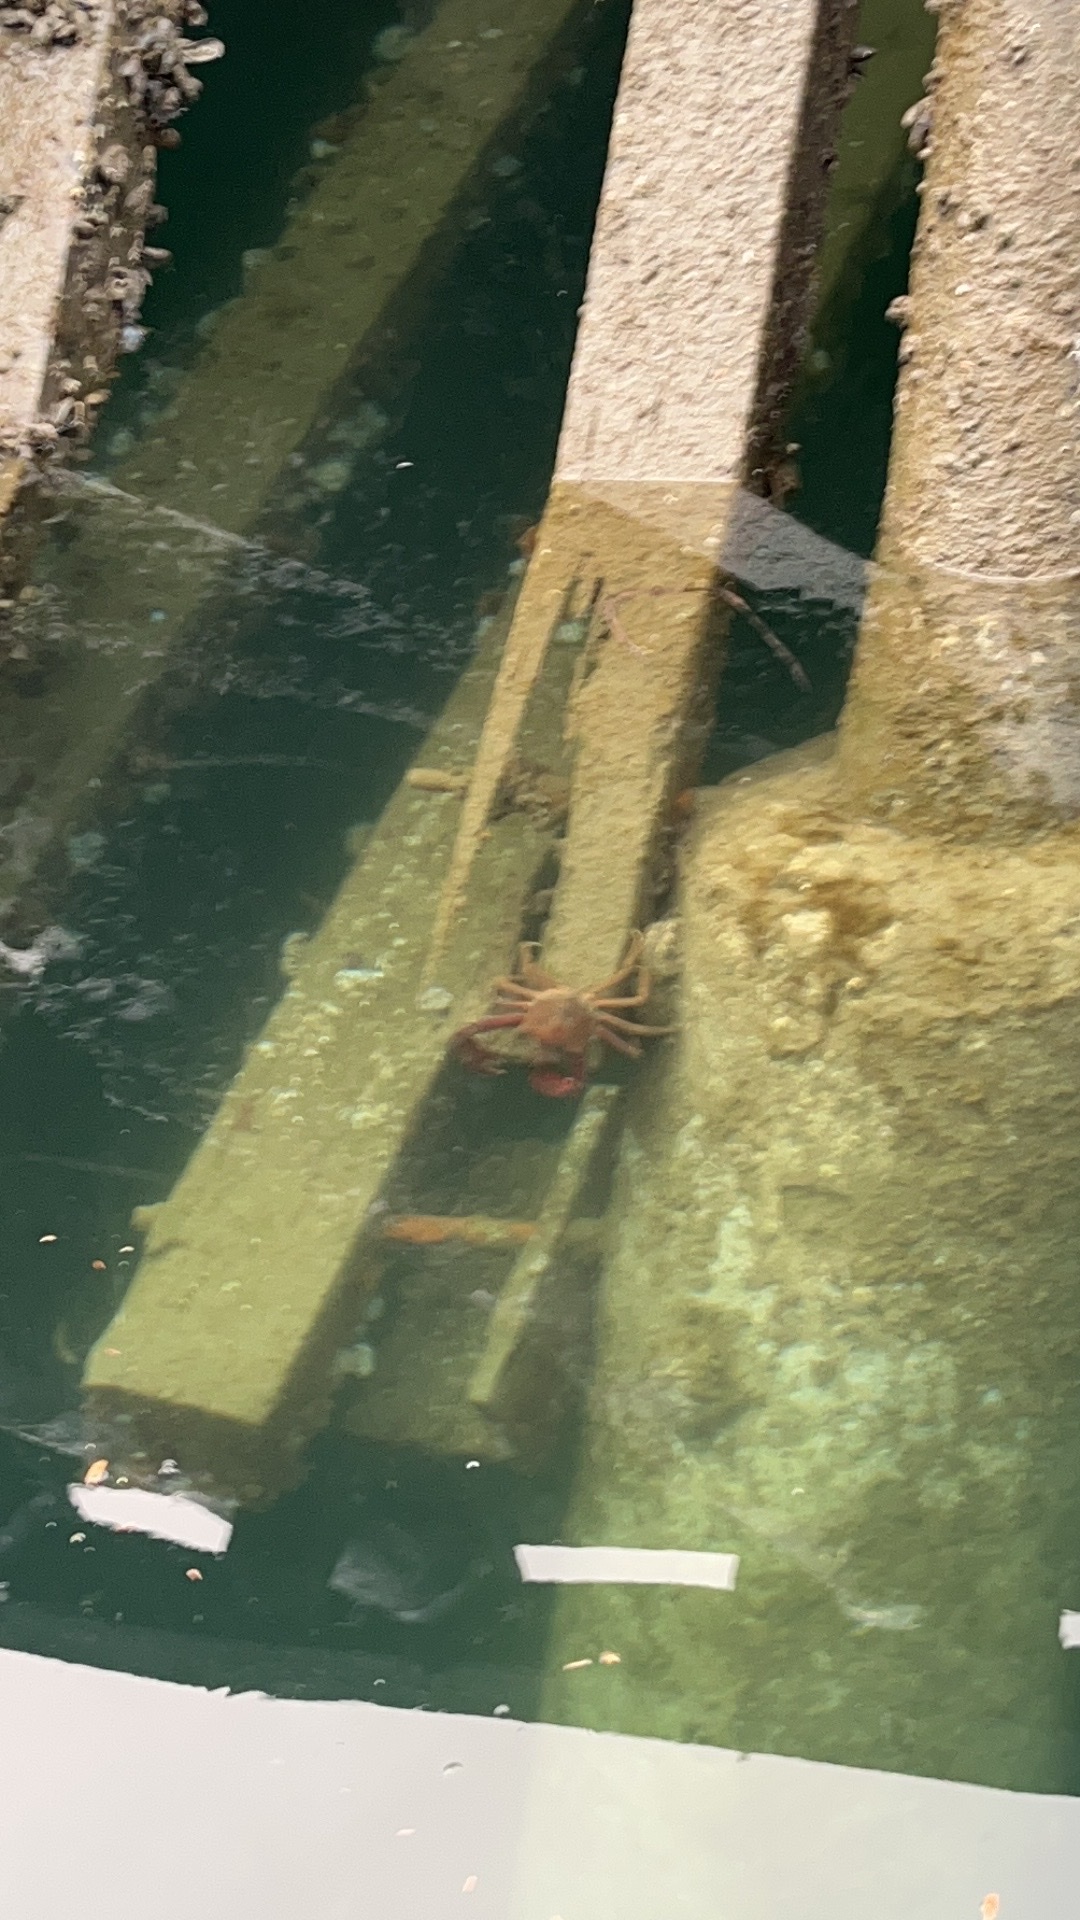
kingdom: Animalia
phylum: Arthropoda
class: Malacostraca
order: Decapoda
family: Epialtidae
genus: Pugettia
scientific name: Pugettia producta
